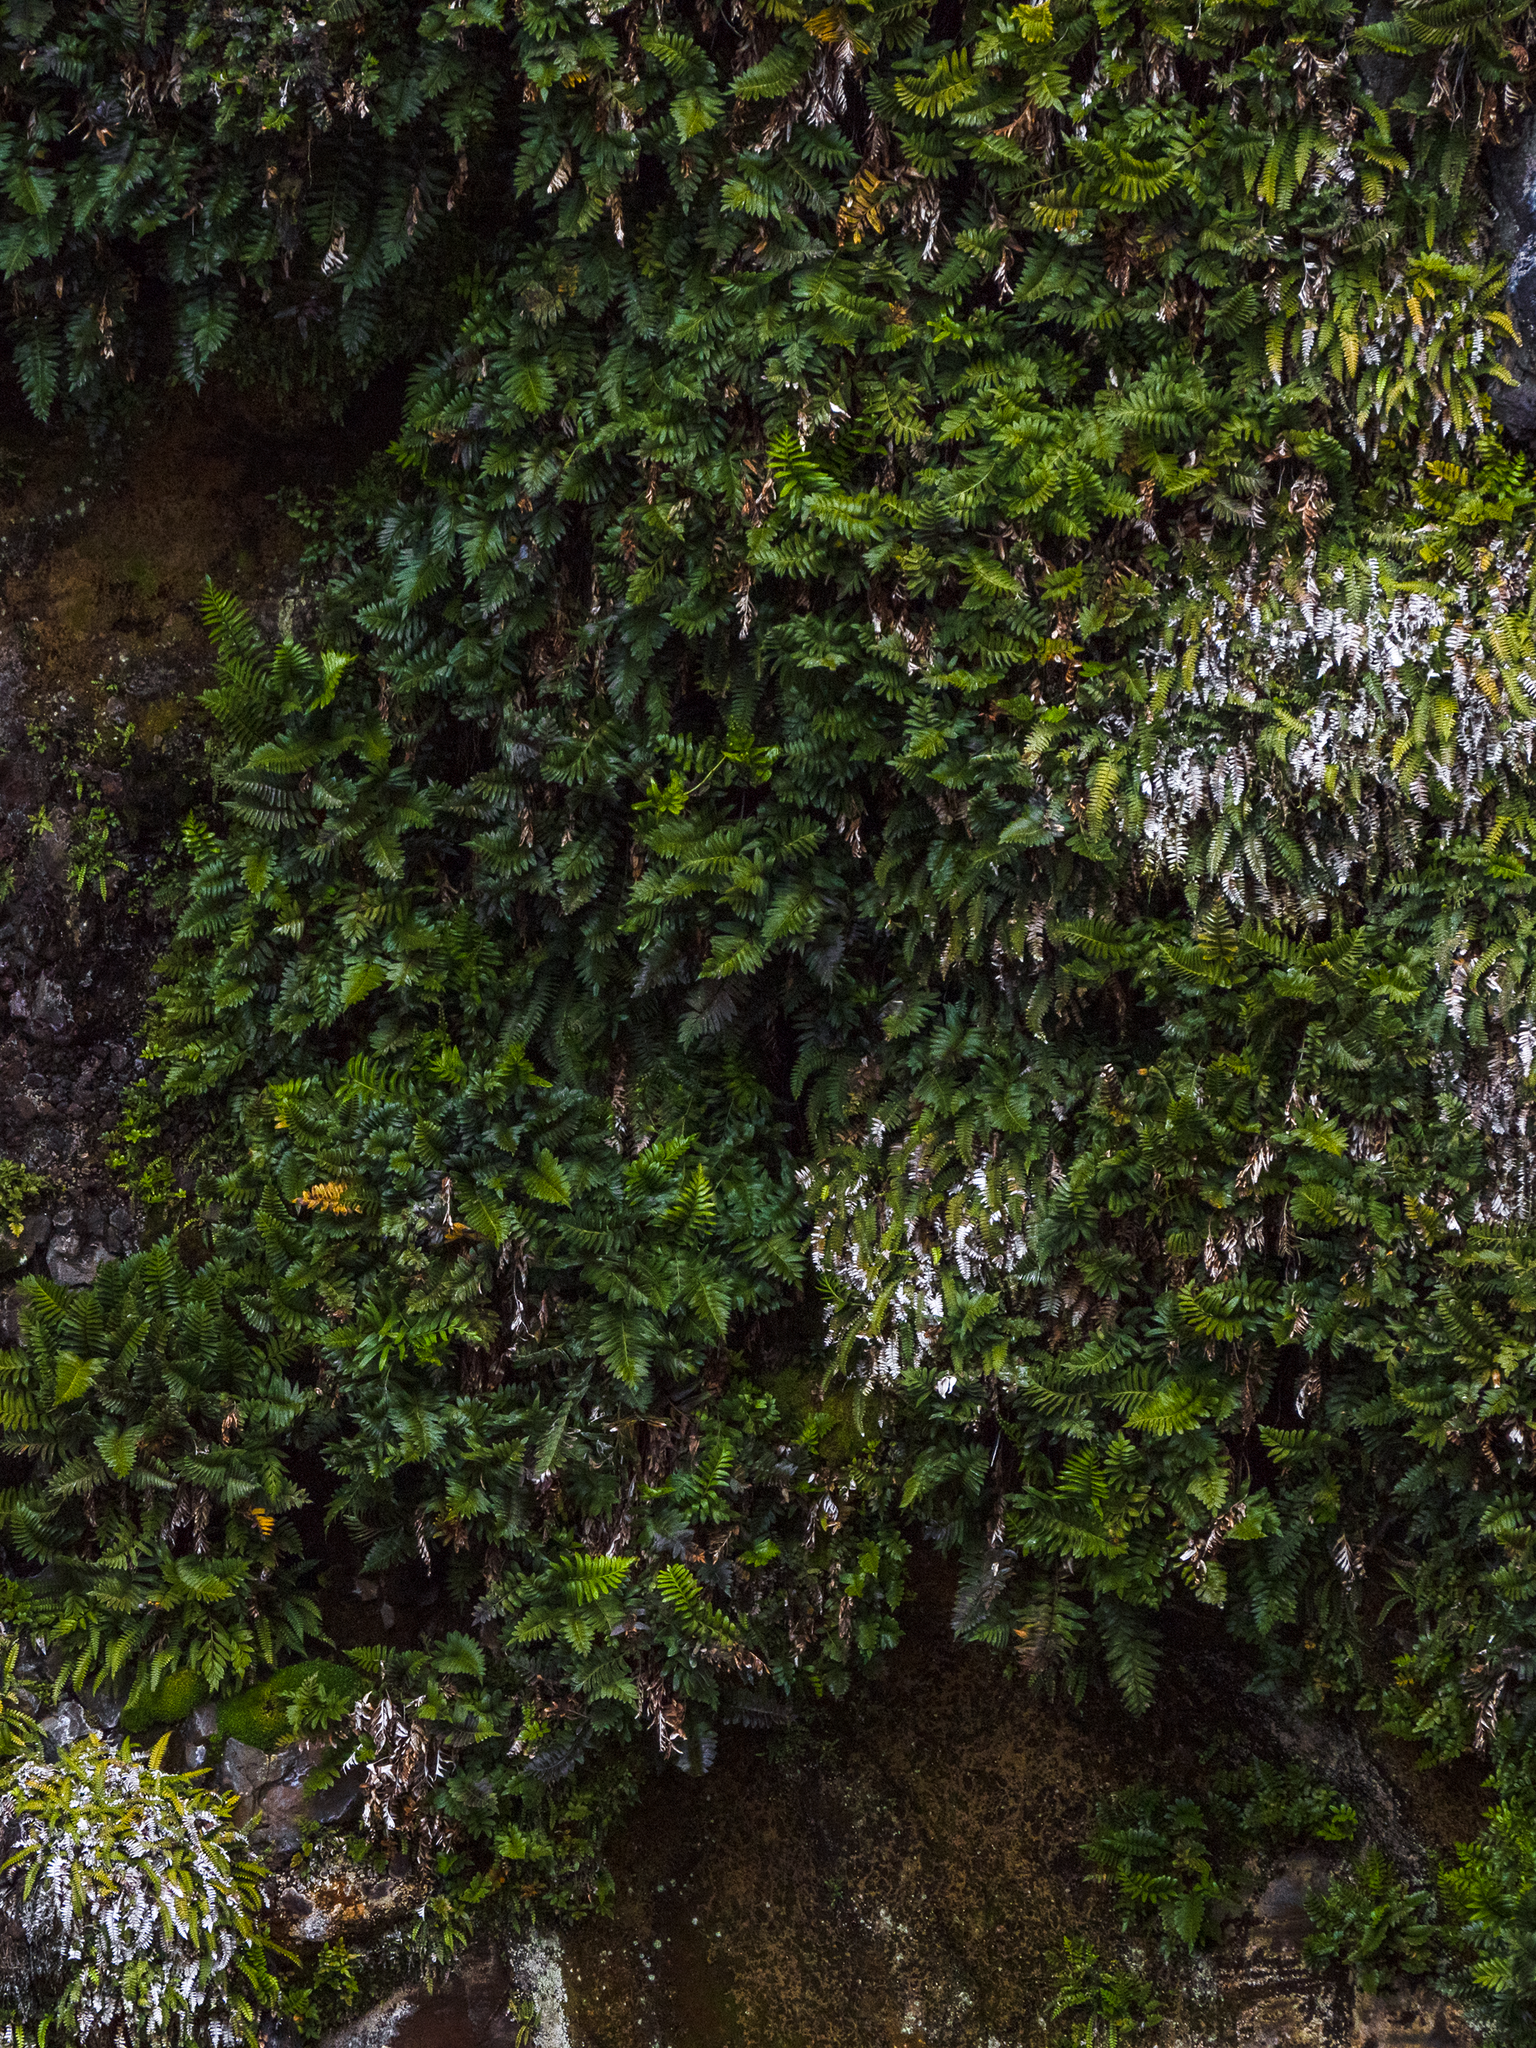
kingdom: Plantae
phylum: Tracheophyta
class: Polypodiopsida
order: Polypodiales
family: Aspleniaceae
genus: Asplenium
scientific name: Asplenium obtusatum
